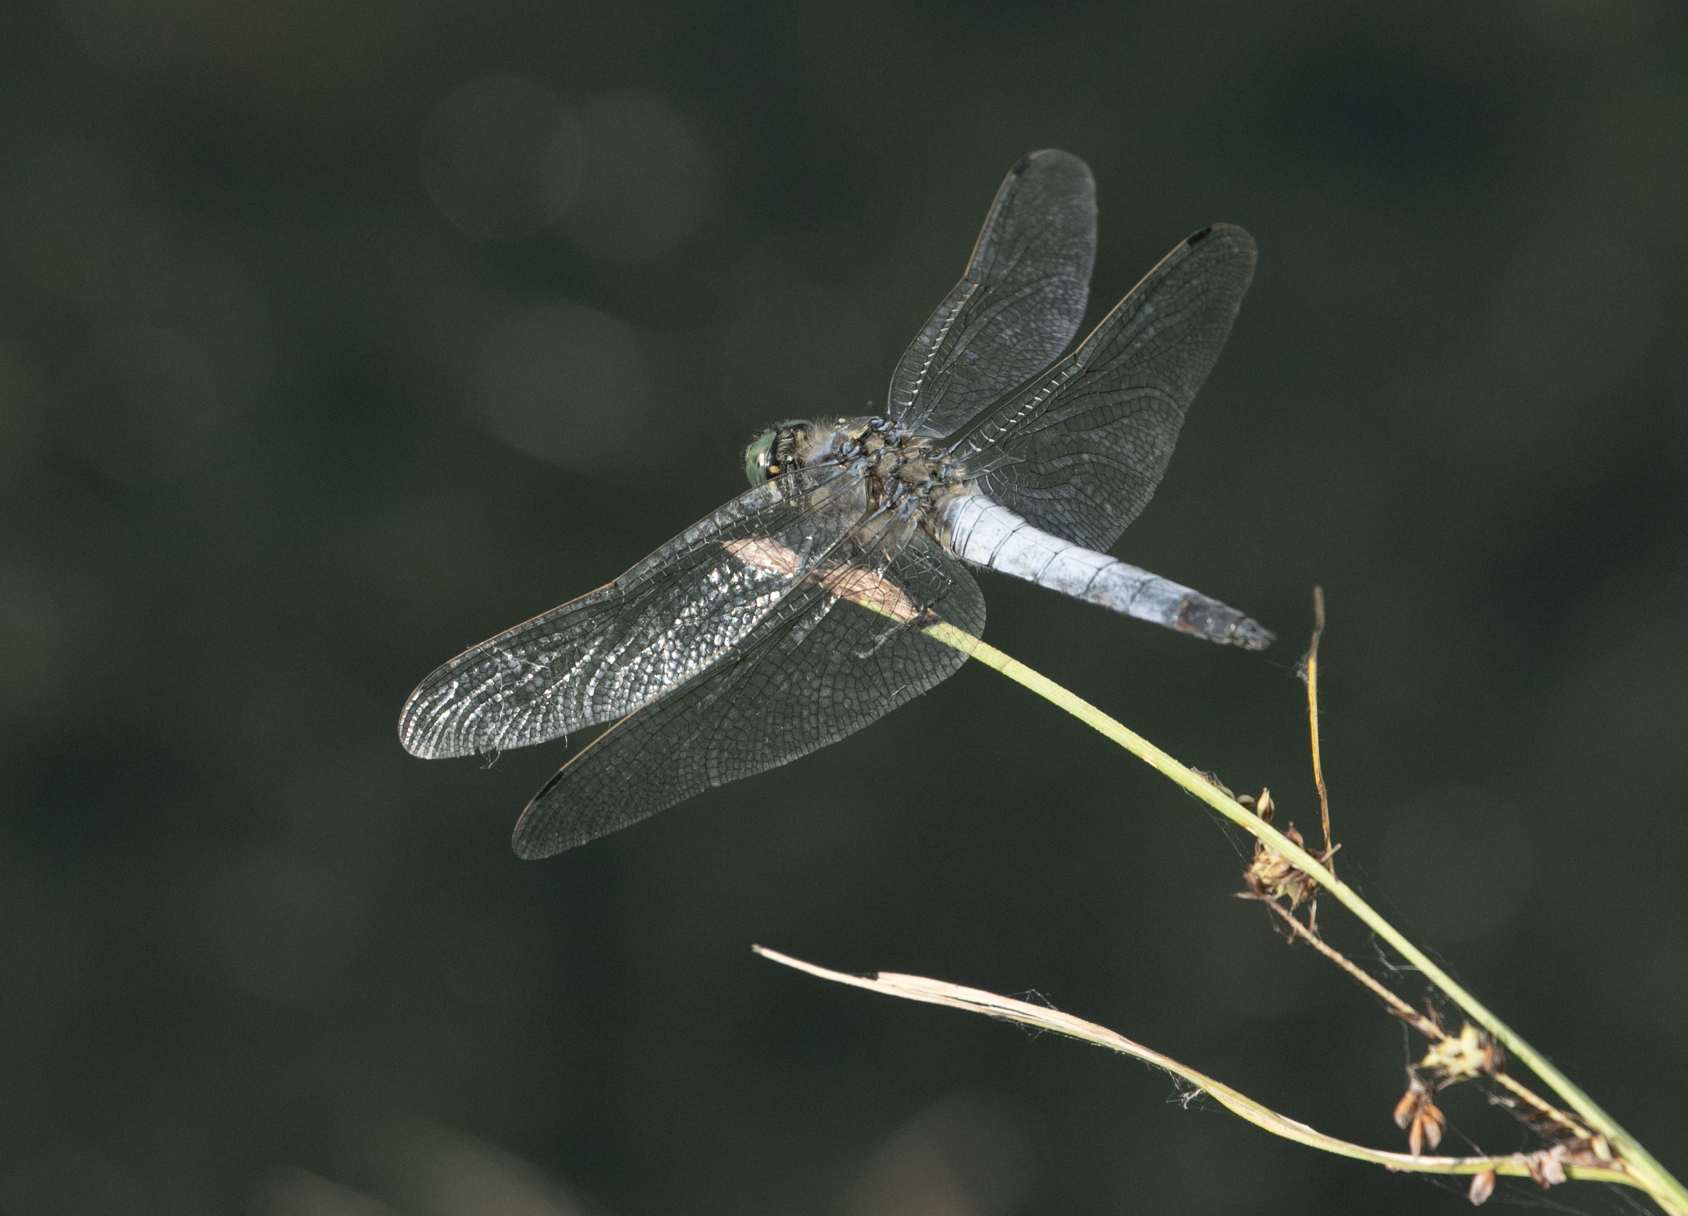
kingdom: Animalia
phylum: Arthropoda
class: Insecta
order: Odonata
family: Libellulidae
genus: Orthetrum
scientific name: Orthetrum cancellatum
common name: Black-tailed skimmer
